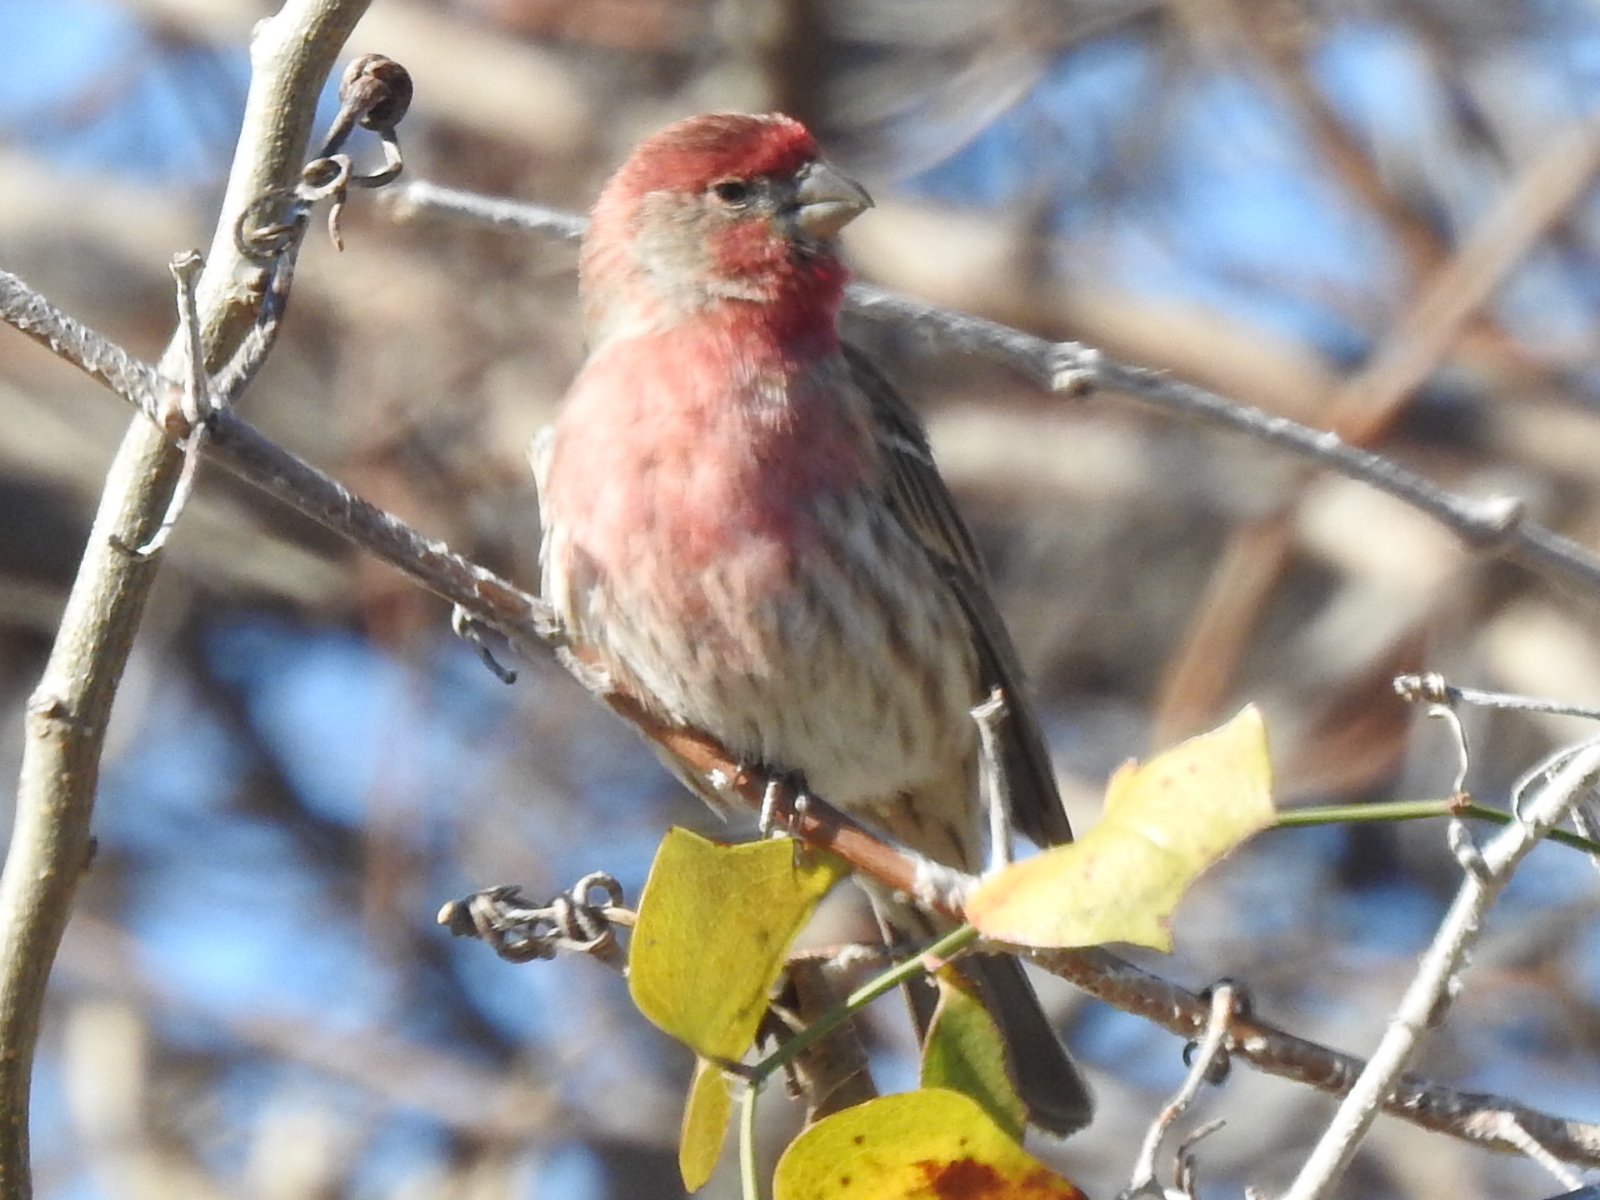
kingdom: Animalia
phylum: Chordata
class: Aves
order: Passeriformes
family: Fringillidae
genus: Haemorhous
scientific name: Haemorhous mexicanus
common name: House finch
